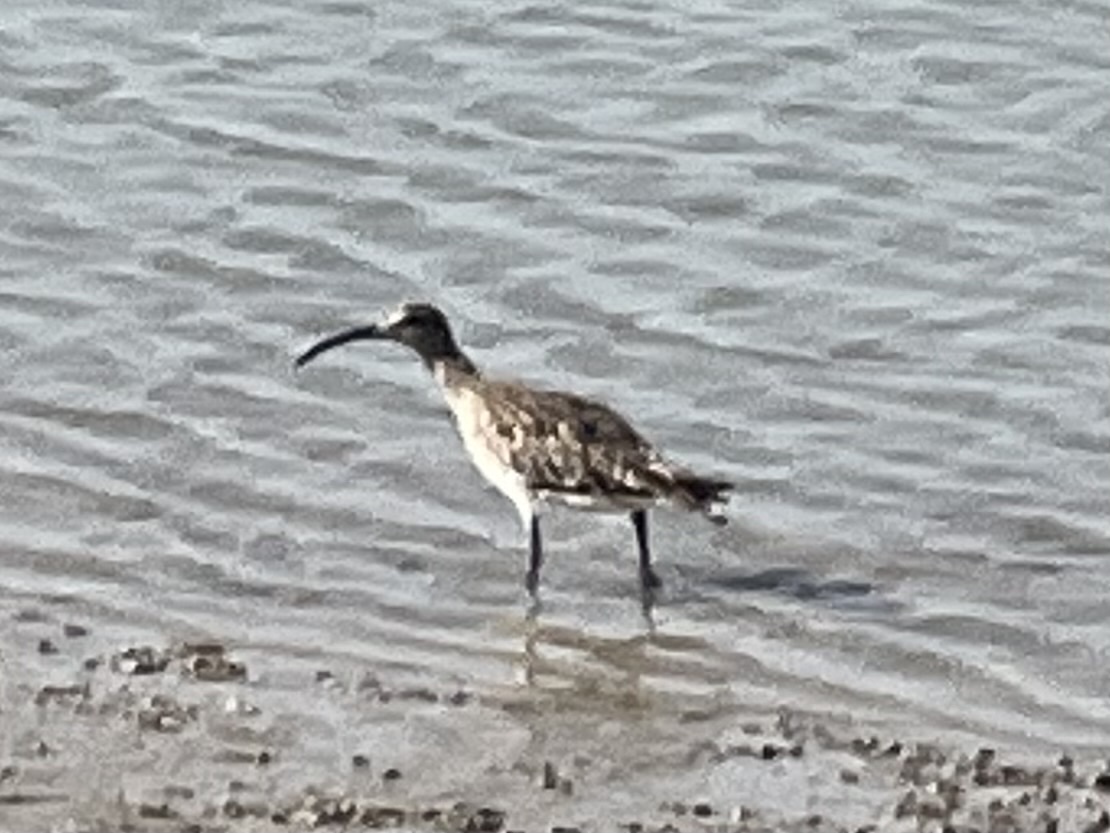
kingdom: Animalia
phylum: Chordata
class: Aves
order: Charadriiformes
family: Scolopacidae
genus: Numenius
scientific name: Numenius phaeopus
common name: Whimbrel
